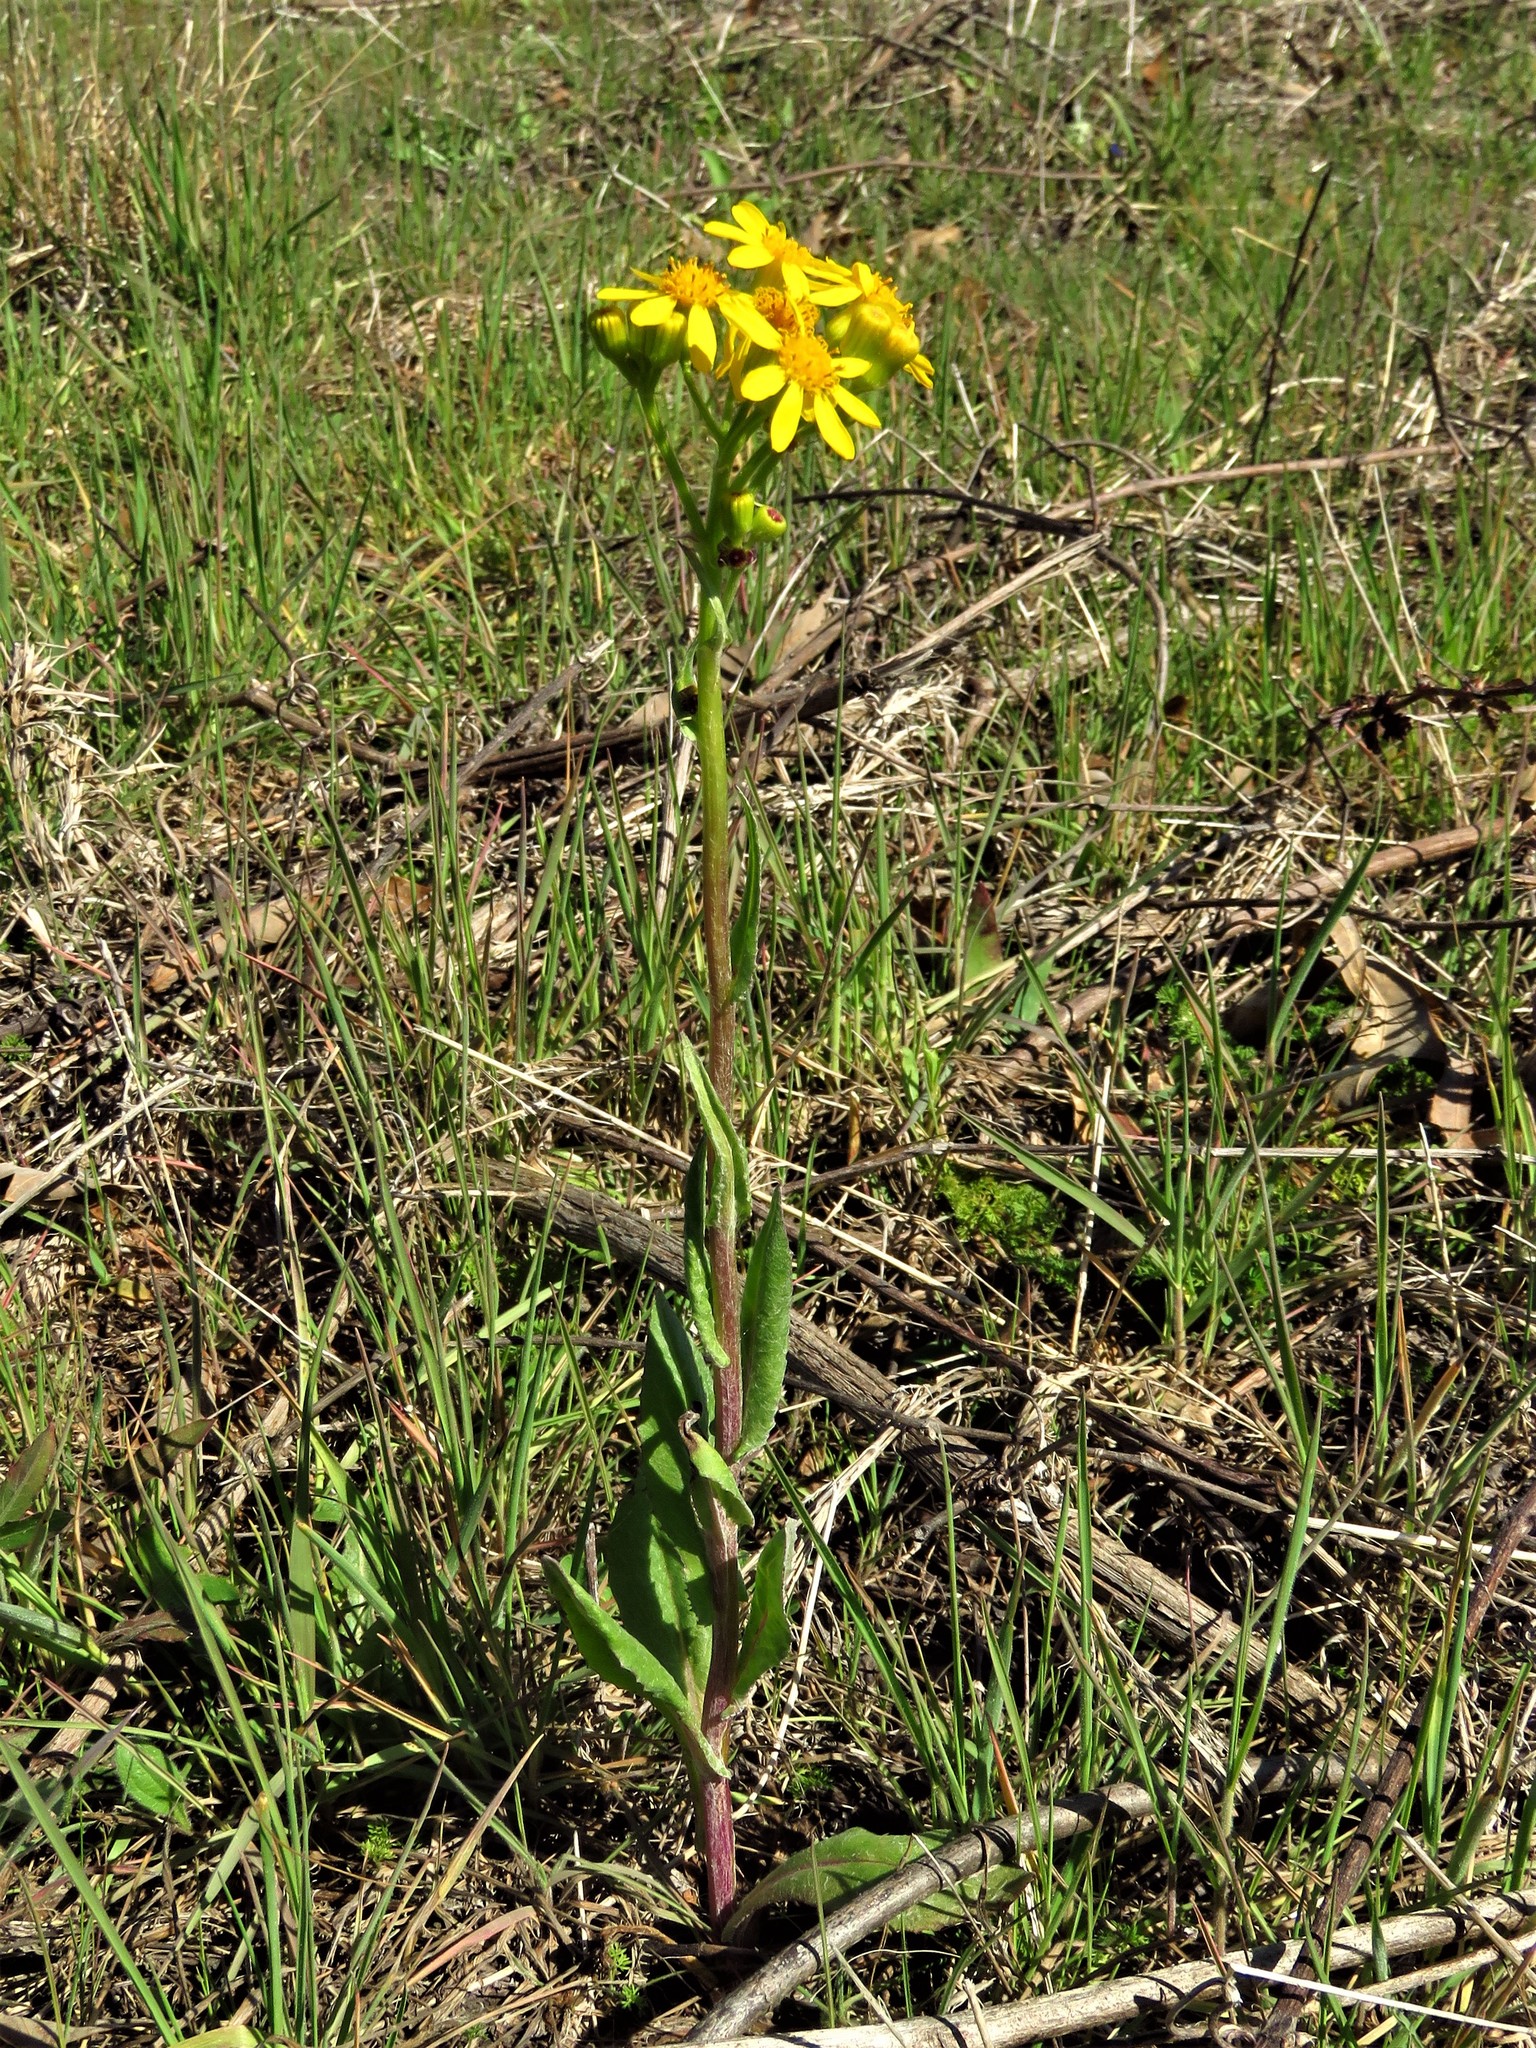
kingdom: Plantae
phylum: Tracheophyta
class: Magnoliopsida
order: Asterales
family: Asteraceae
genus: Senecio
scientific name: Senecio ampullaceus
